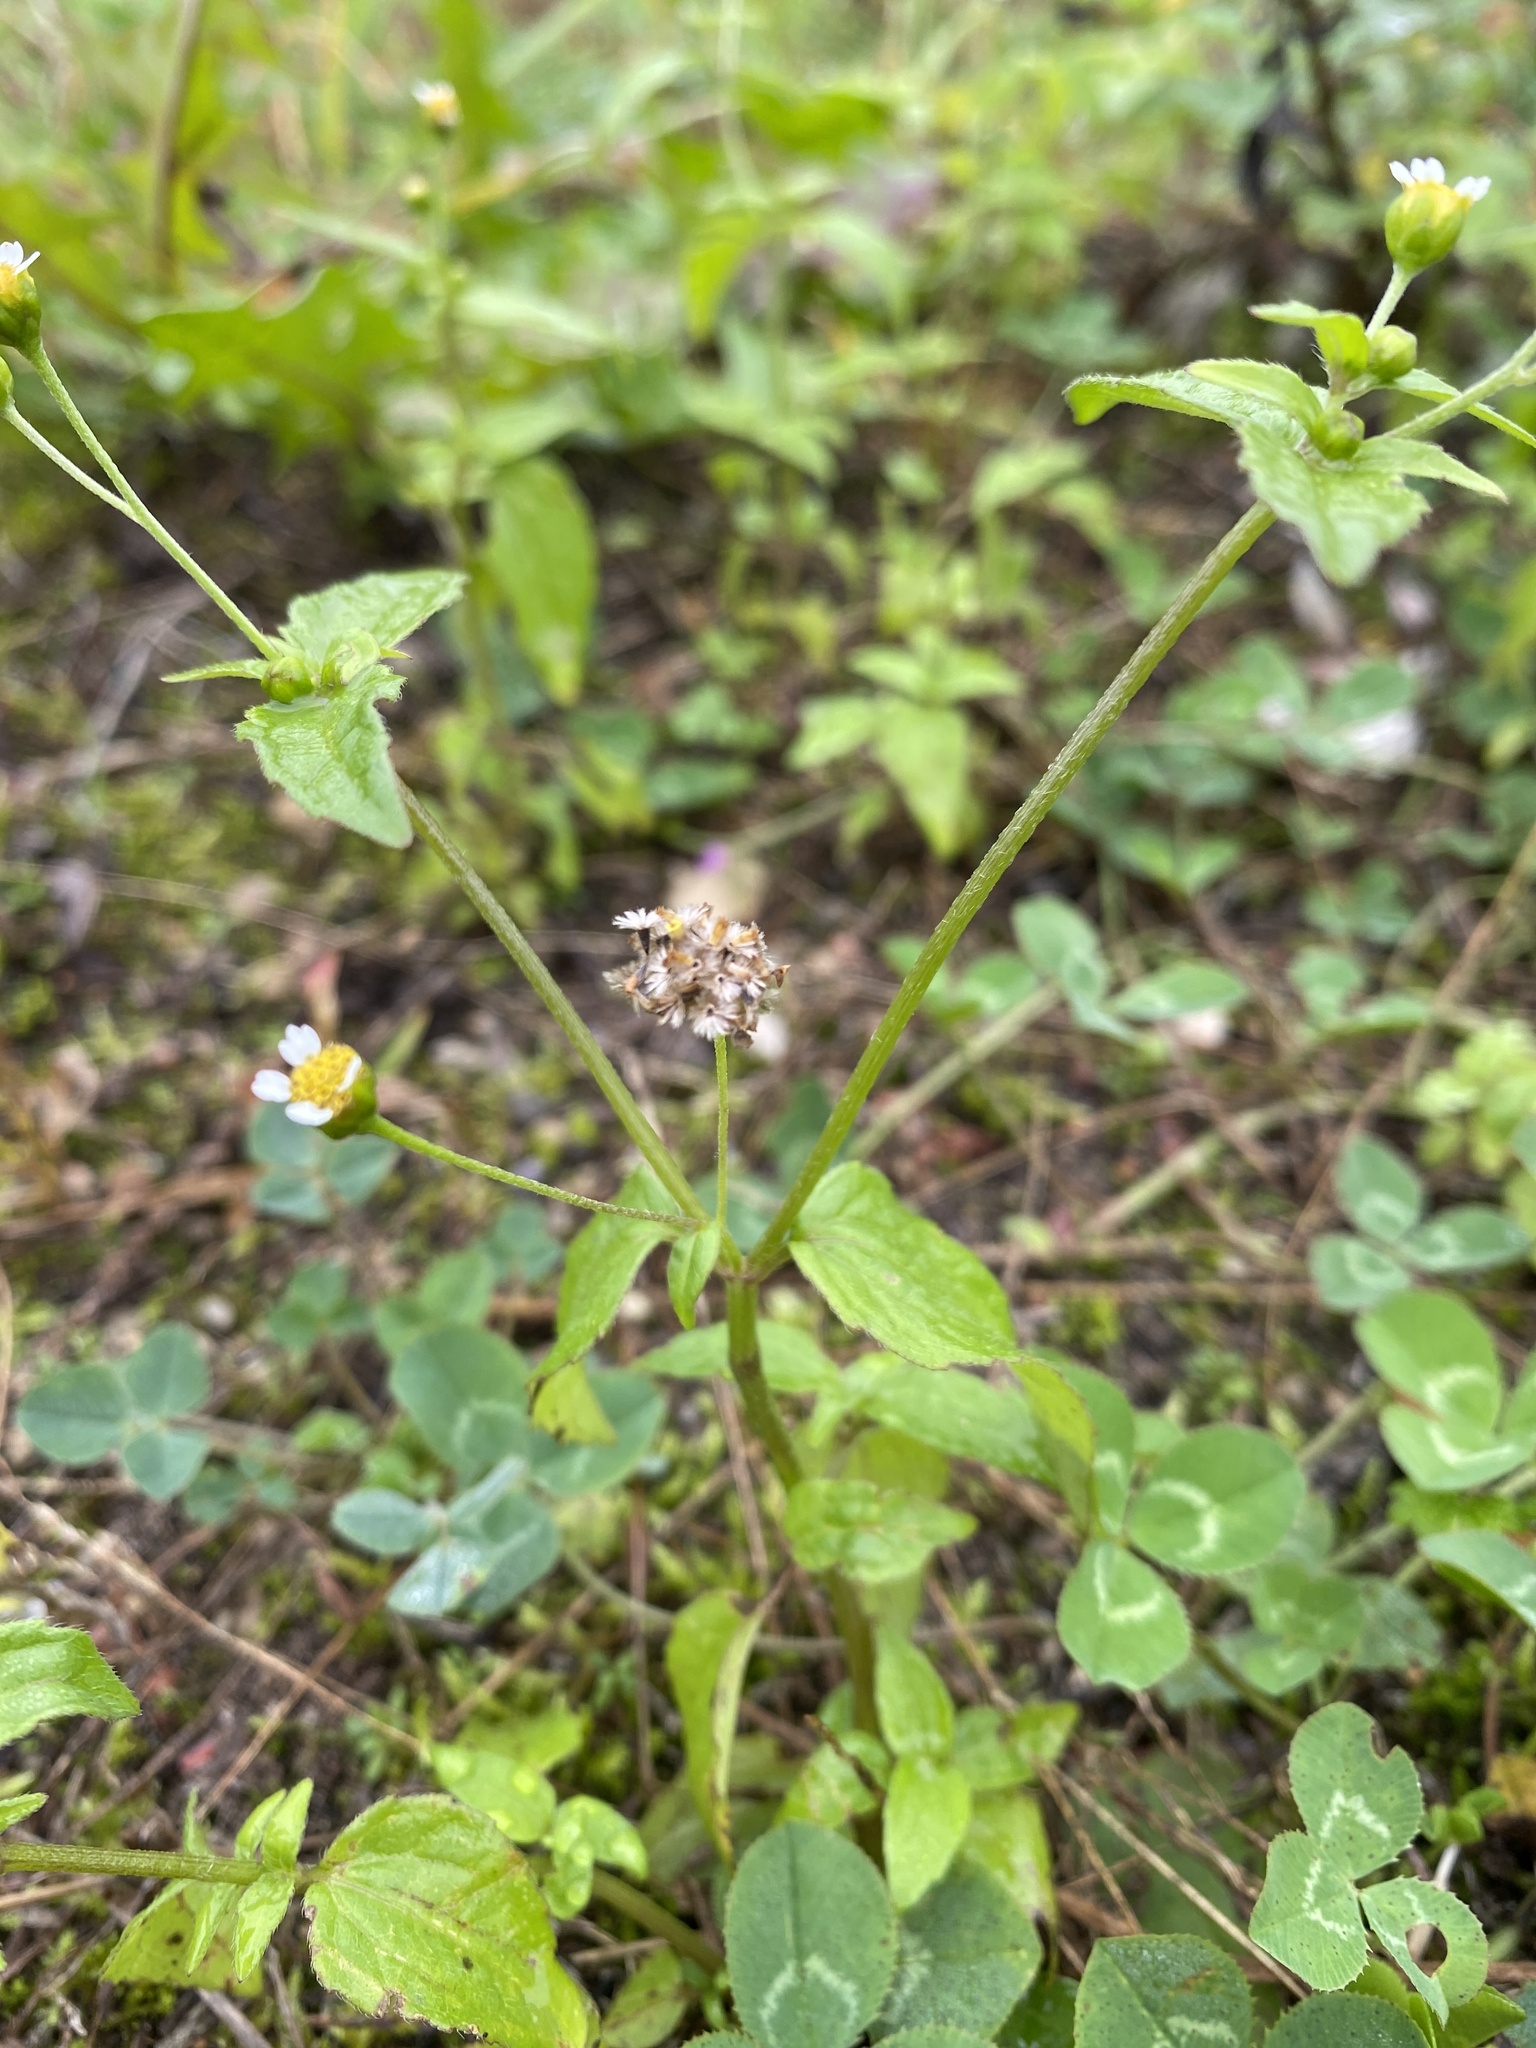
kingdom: Plantae
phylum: Tracheophyta
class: Magnoliopsida
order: Asterales
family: Asteraceae
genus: Galinsoga
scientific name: Galinsoga parviflora
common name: Gallant soldier
